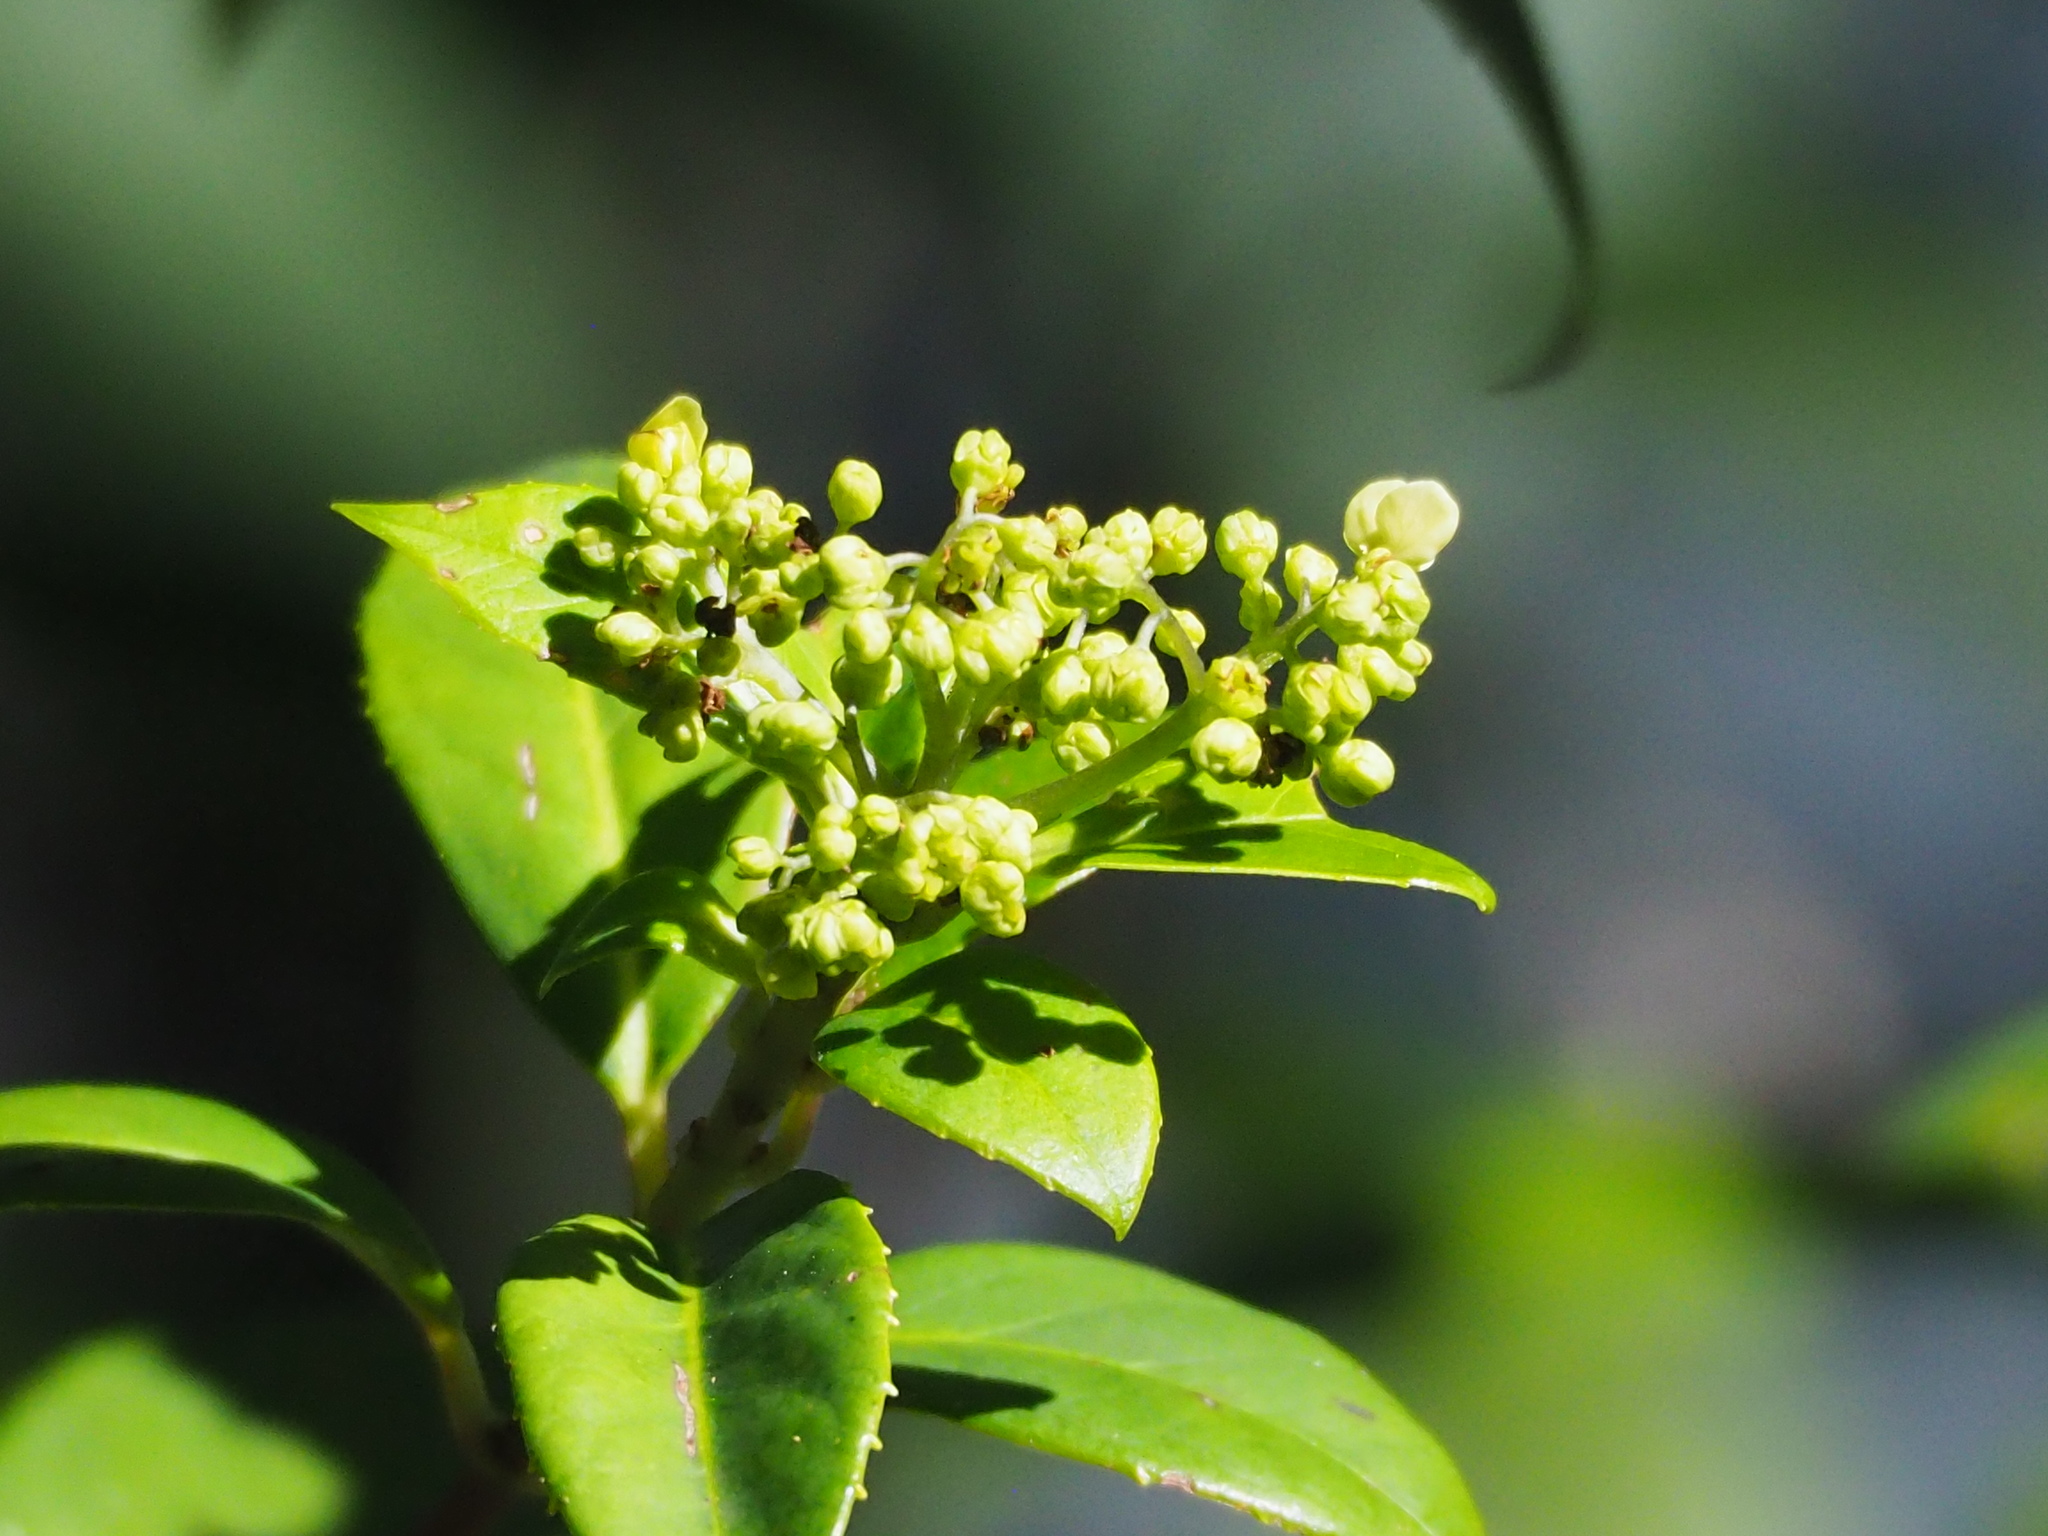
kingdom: Plantae
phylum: Tracheophyta
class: Magnoliopsida
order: Cornales
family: Hydrangeaceae
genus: Hydrangea
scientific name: Hydrangea chinensis
